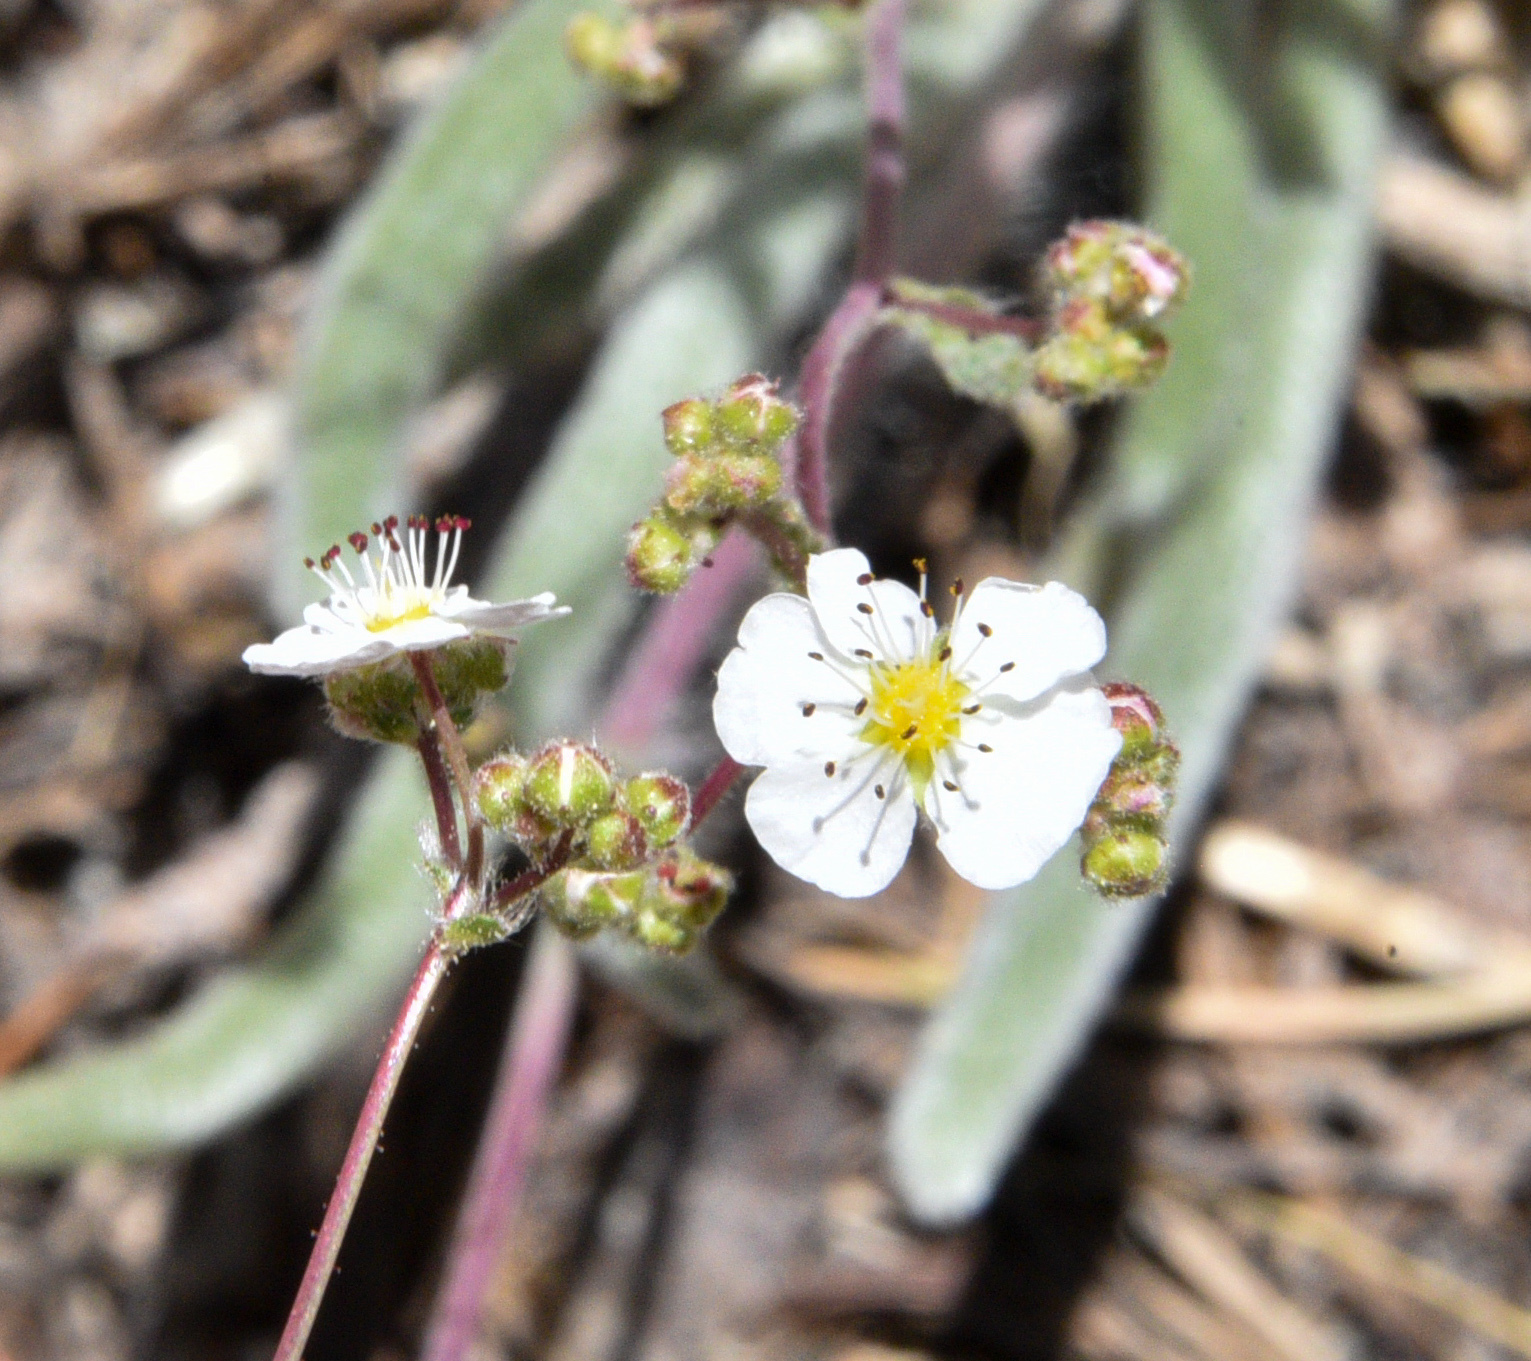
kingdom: Plantae
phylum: Tracheophyta
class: Magnoliopsida
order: Rosales
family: Rosaceae
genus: Potentilla
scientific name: Potentilla santolinoides
